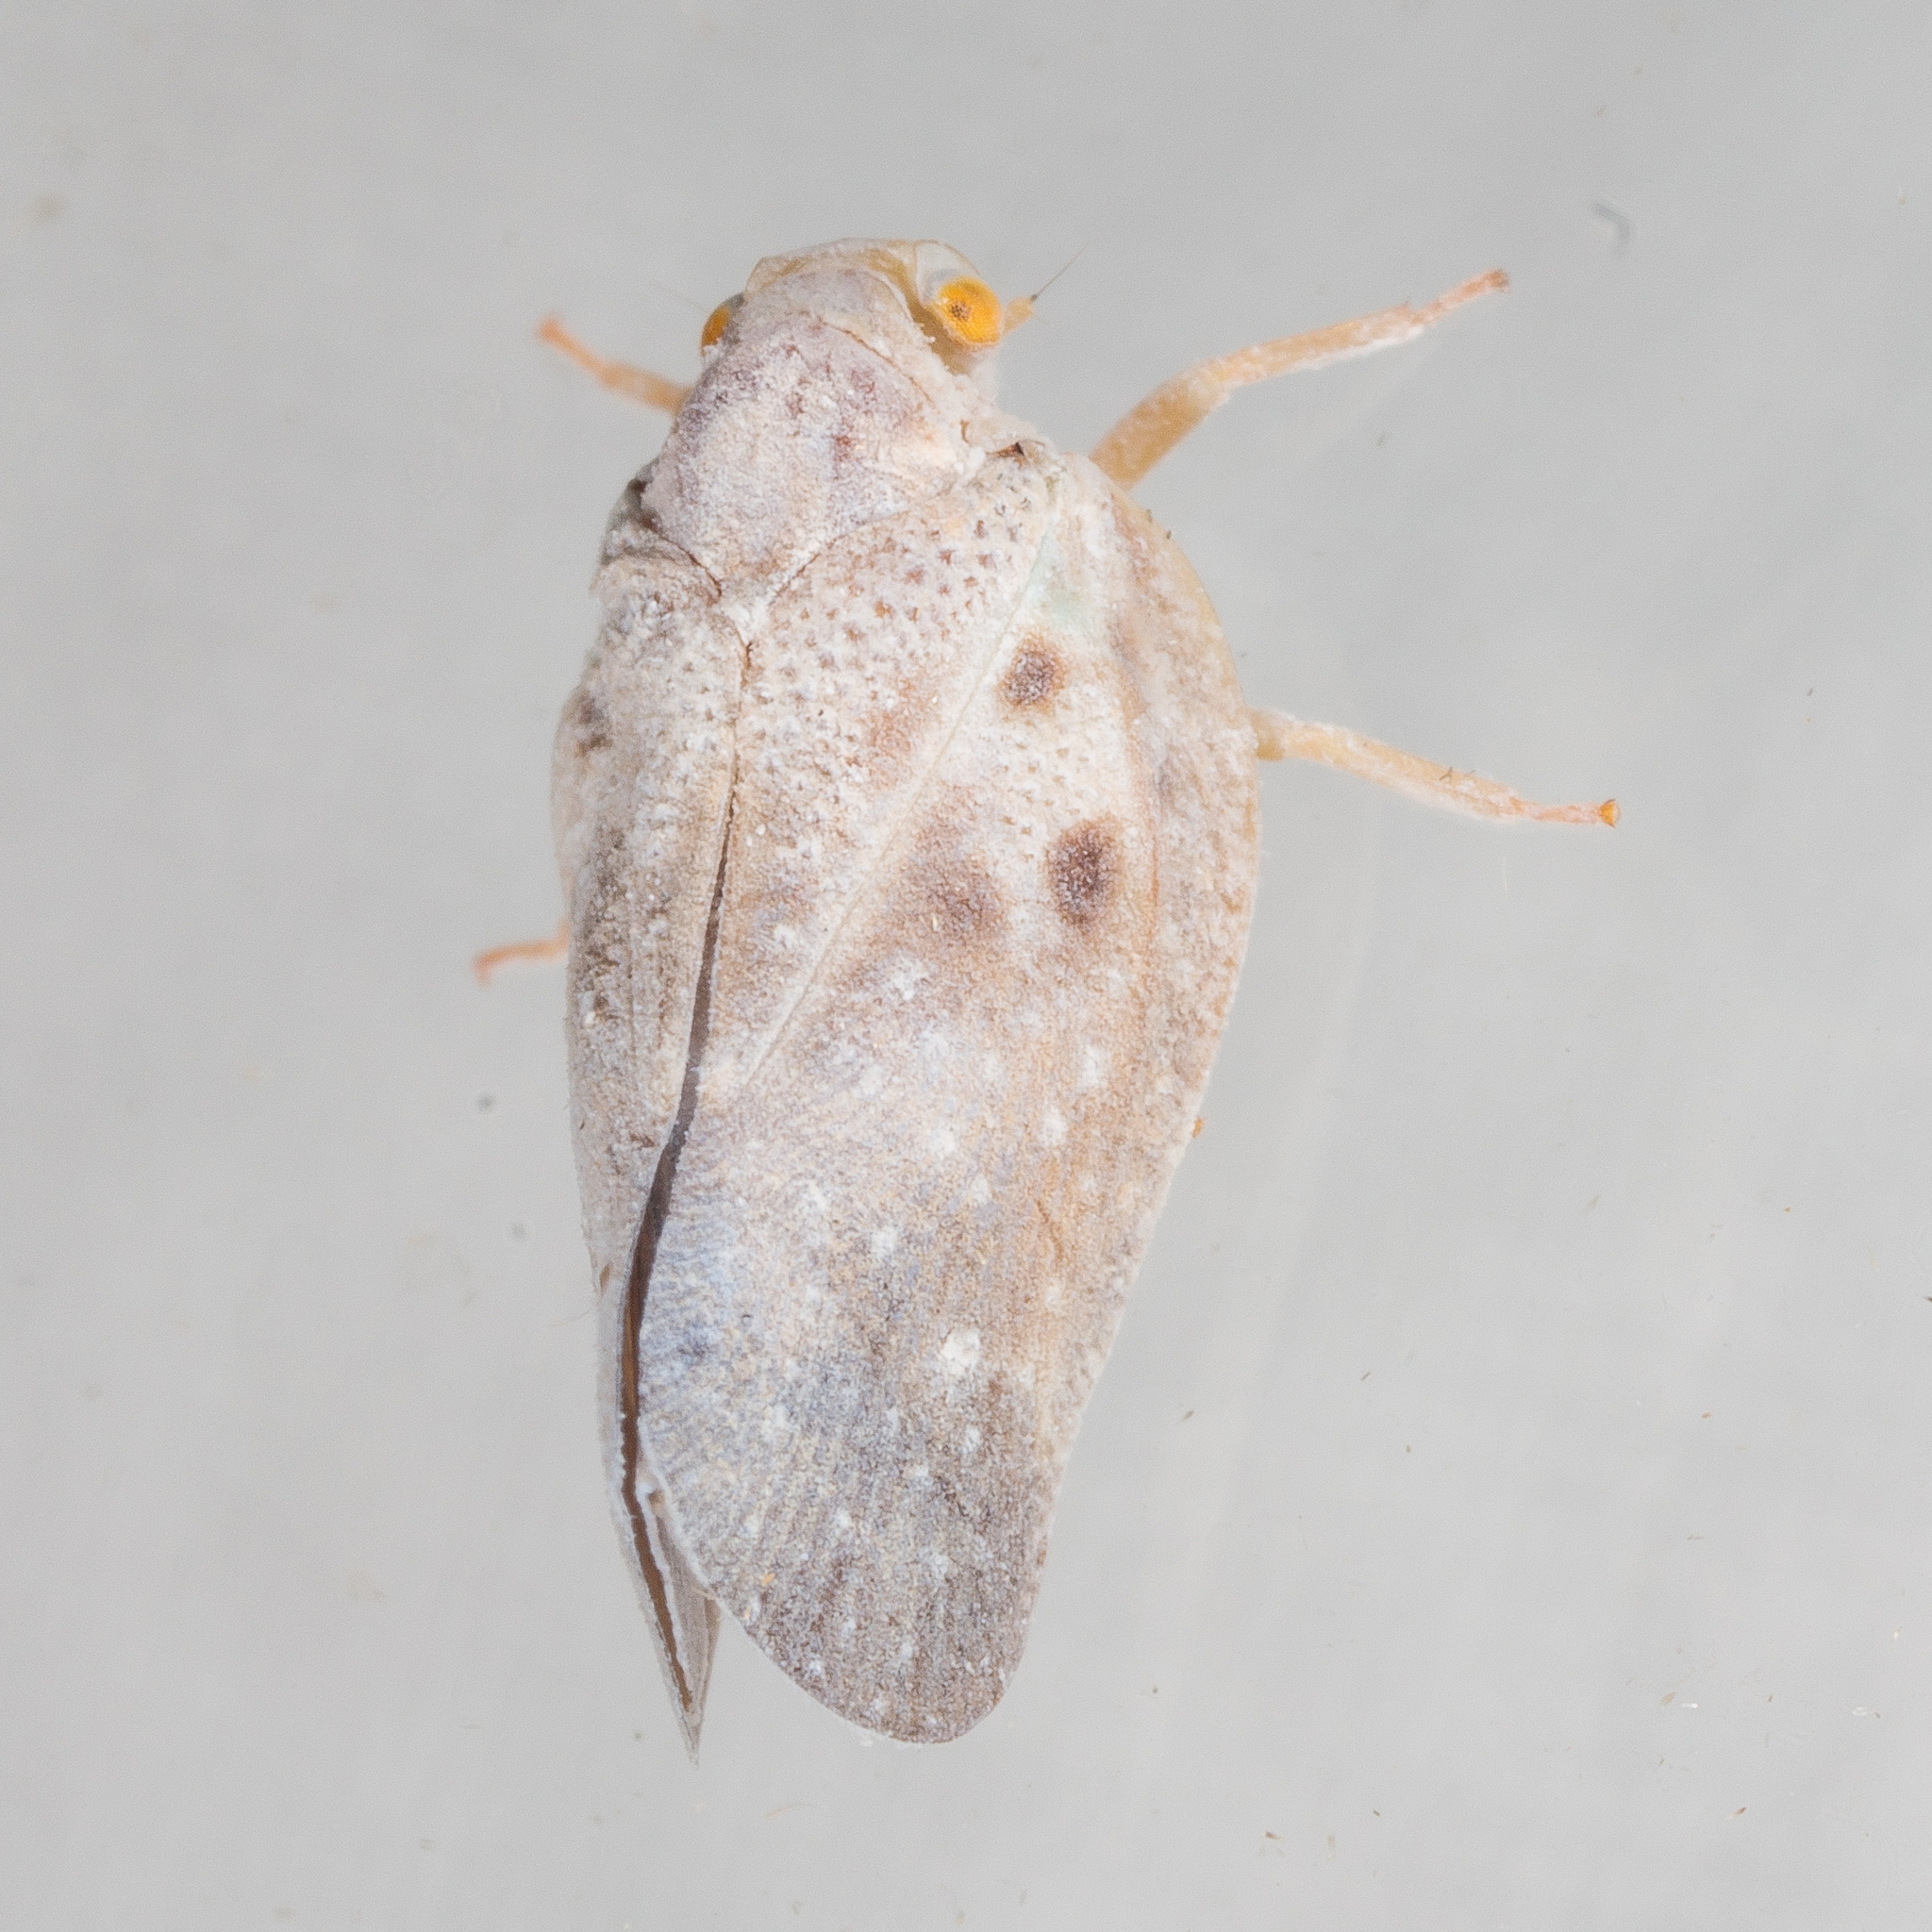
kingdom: Animalia
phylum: Arthropoda
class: Insecta
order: Hemiptera
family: Flatidae
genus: Metcalfa
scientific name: Metcalfa pruinosa
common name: Citrus flatid planthopper
